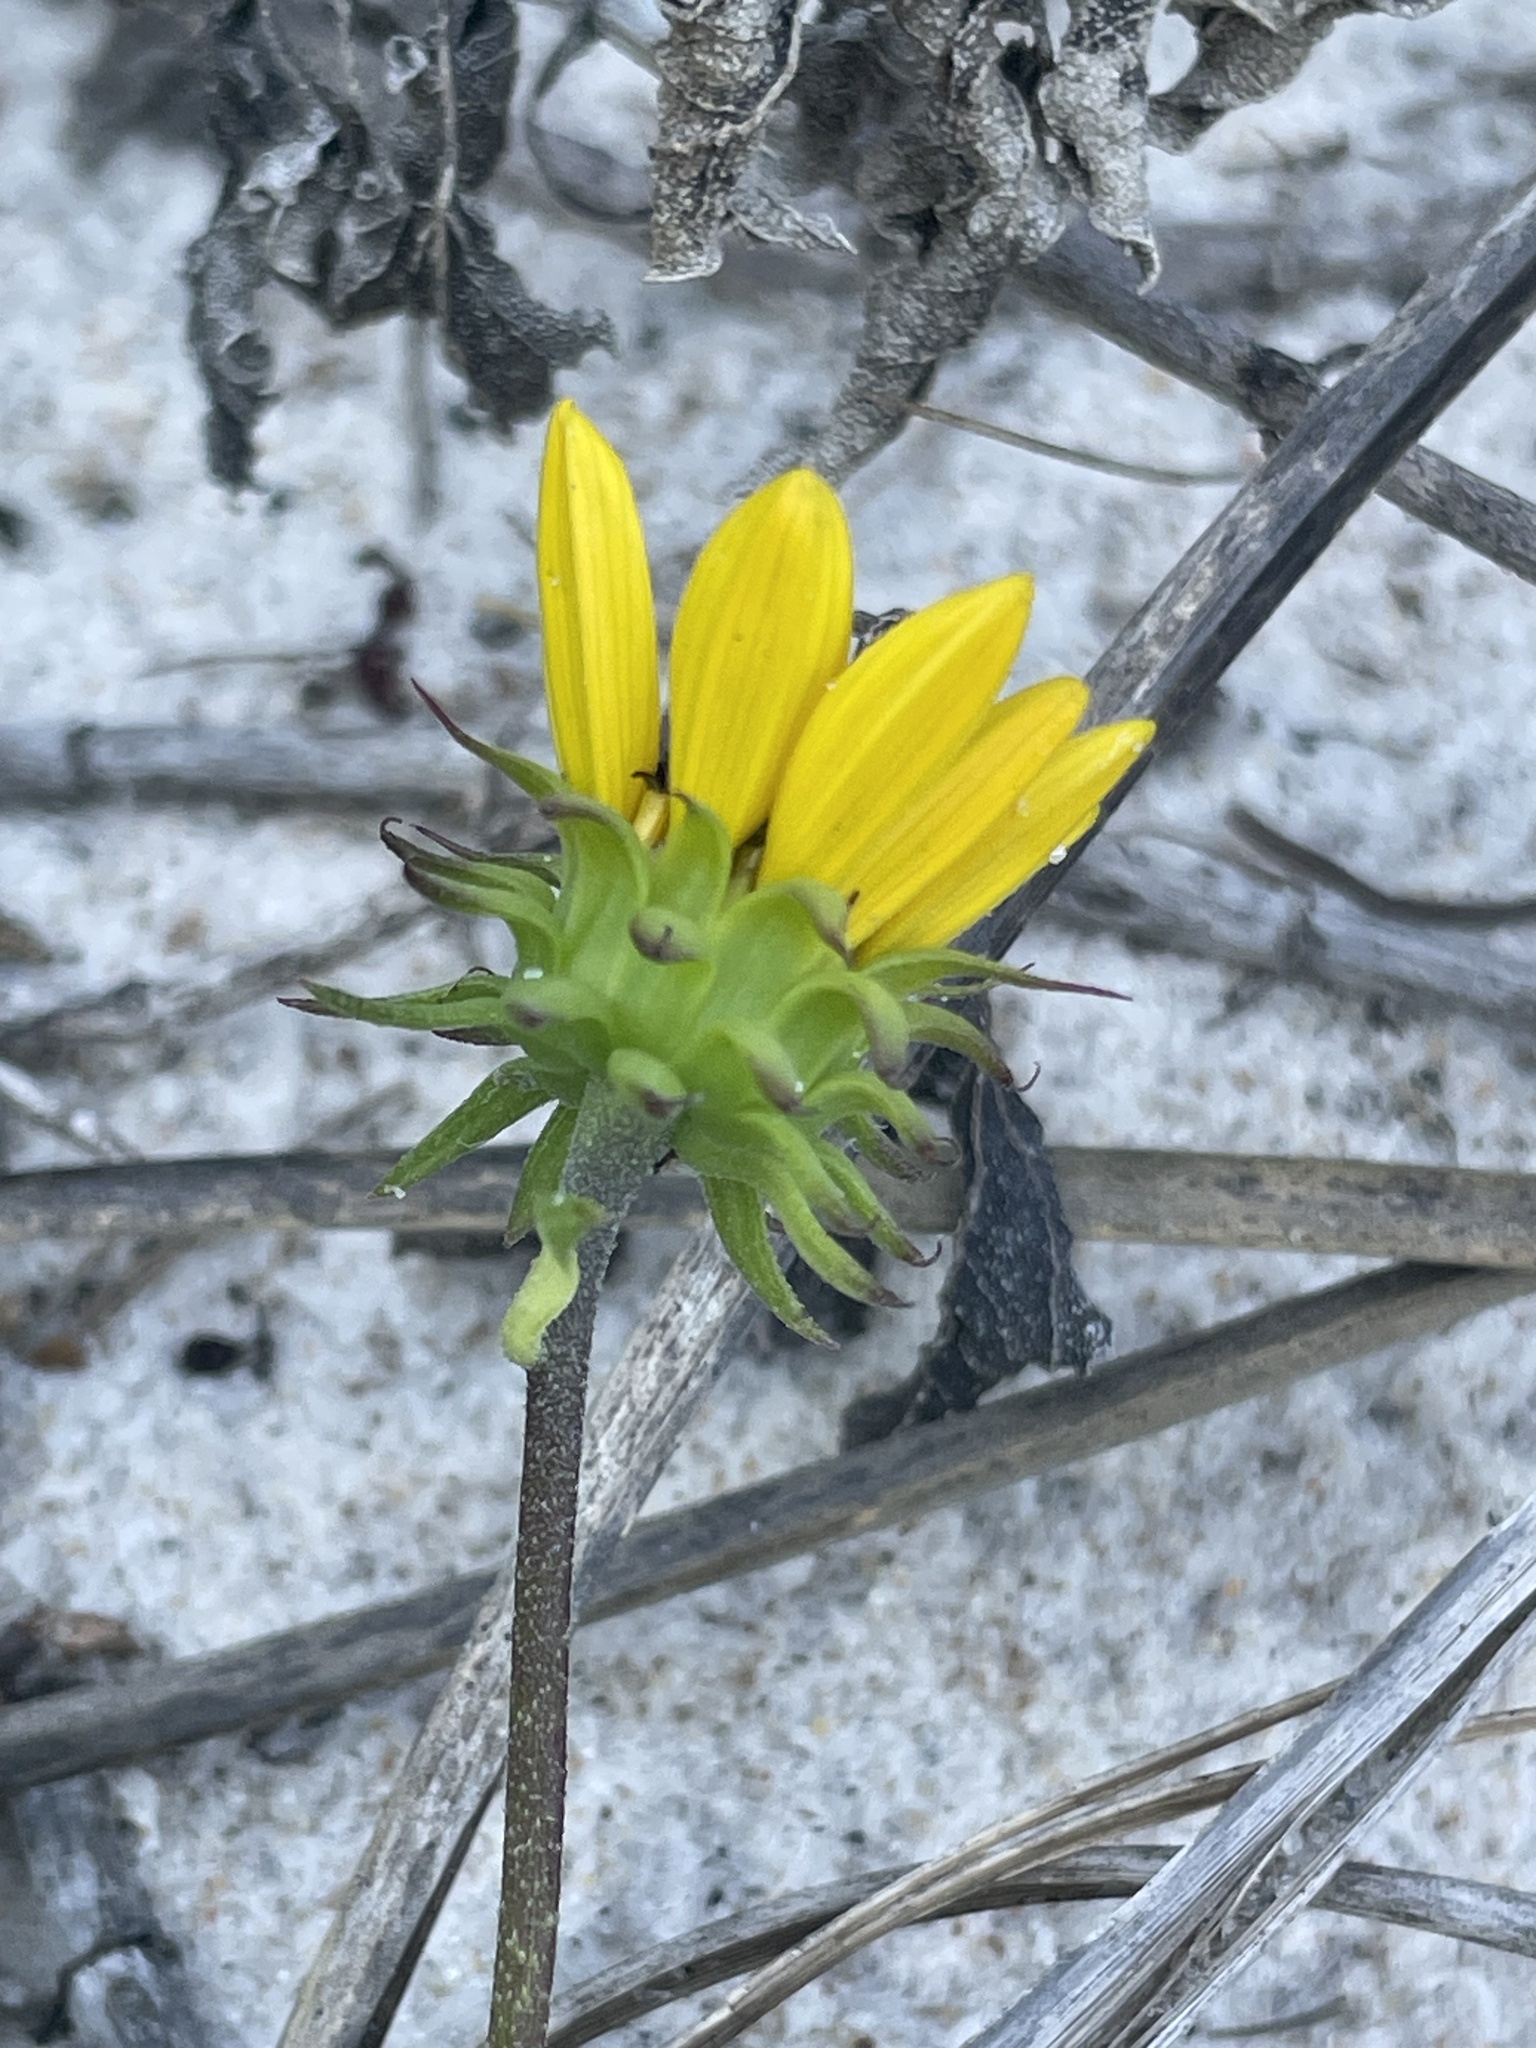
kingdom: Plantae
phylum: Tracheophyta
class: Magnoliopsida
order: Asterales
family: Asteraceae
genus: Helianthus
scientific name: Helianthus debilis
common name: Weak sunflower
